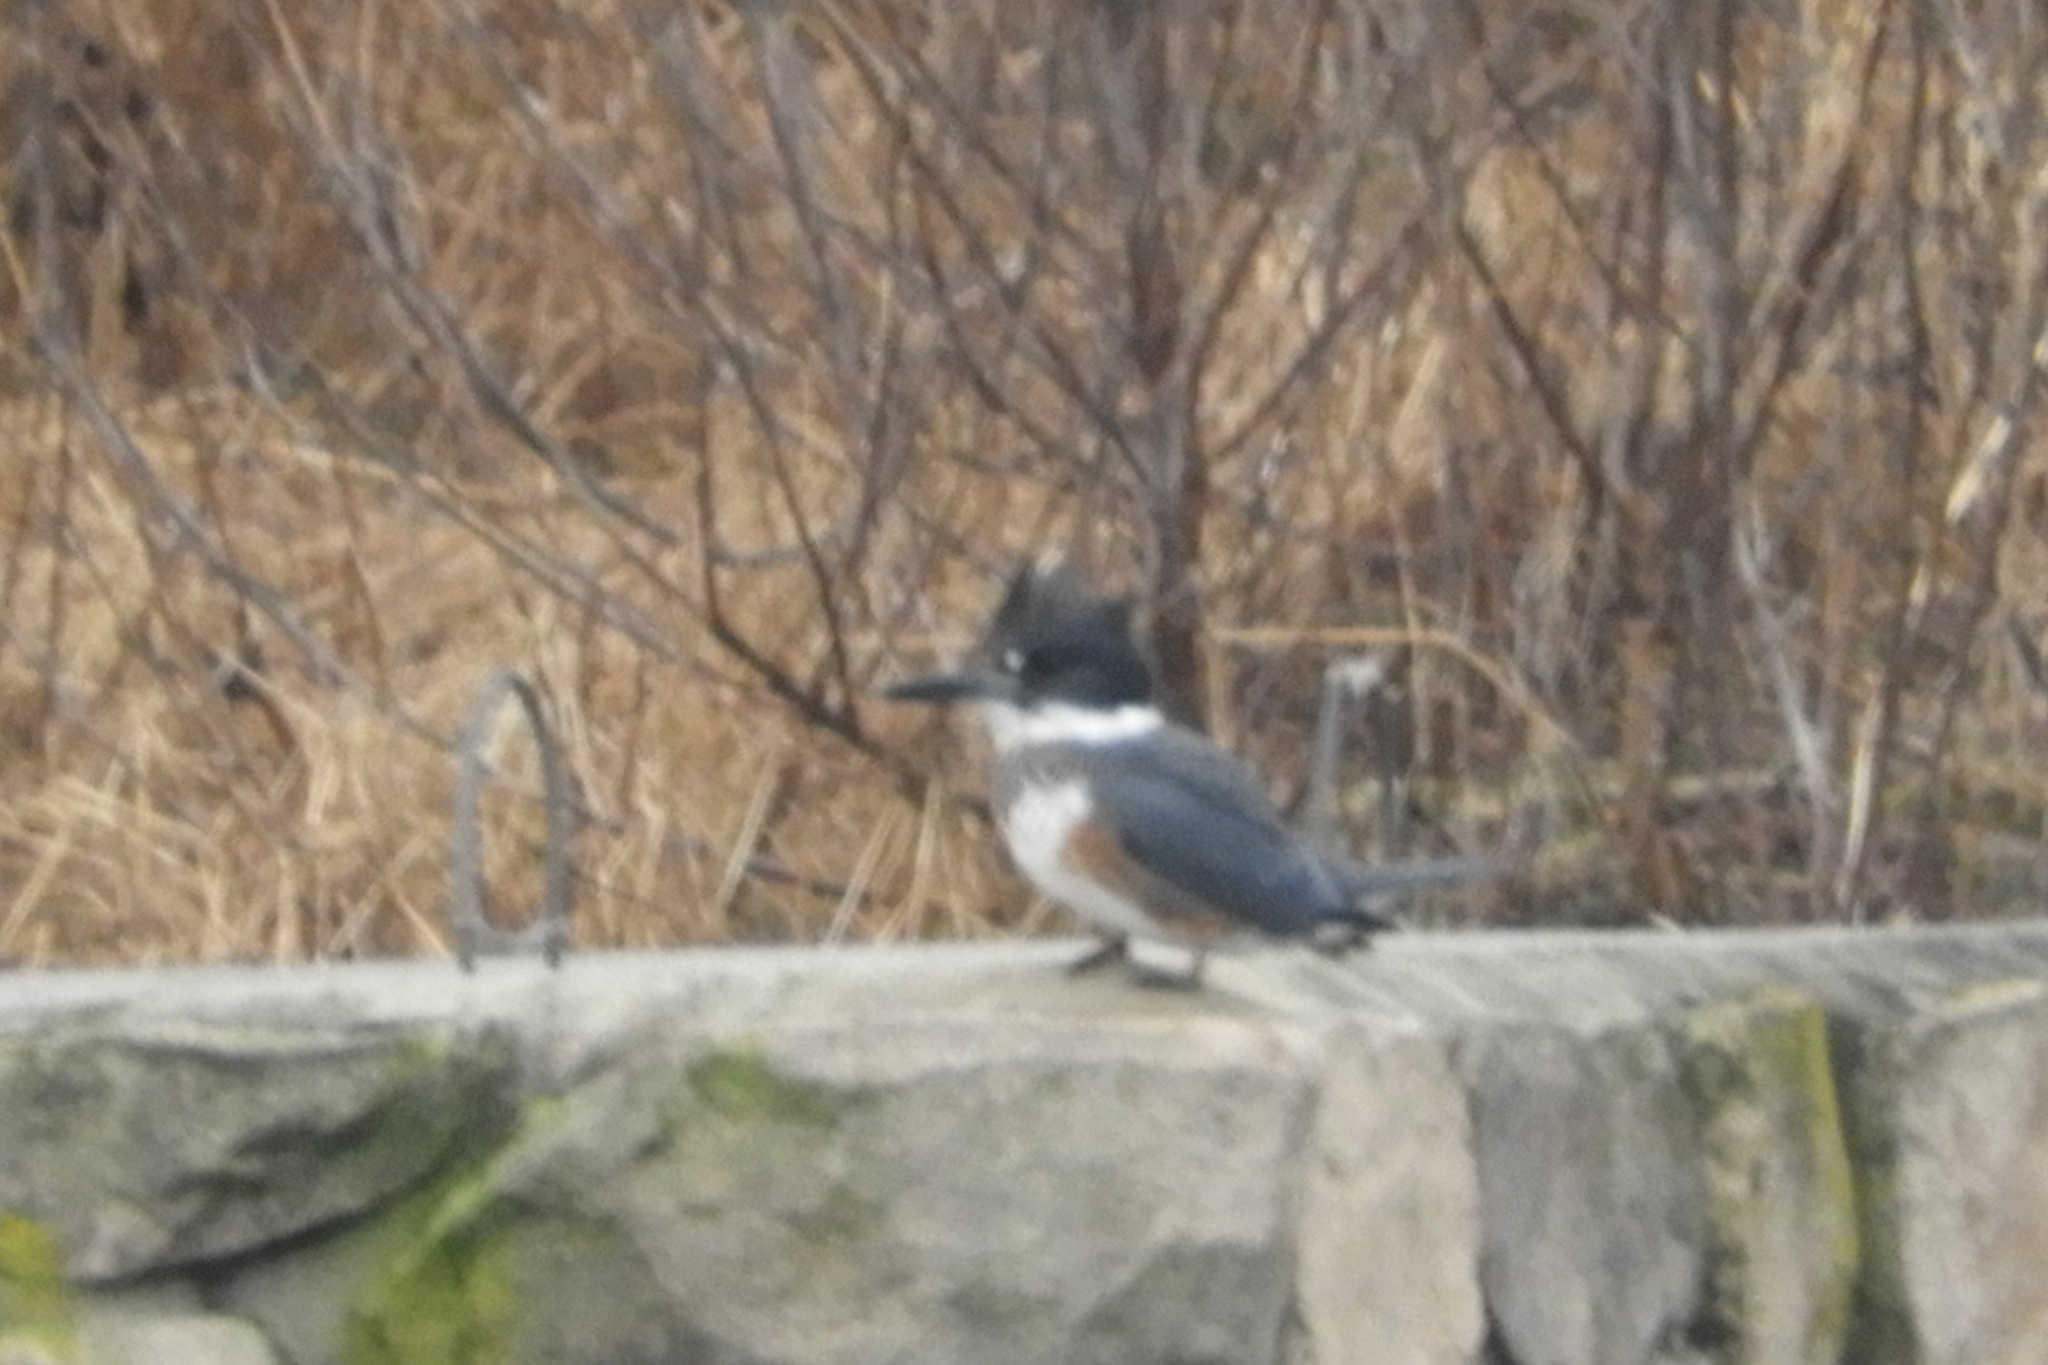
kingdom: Animalia
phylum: Chordata
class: Aves
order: Coraciiformes
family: Alcedinidae
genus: Megaceryle
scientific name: Megaceryle alcyon
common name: Belted kingfisher
